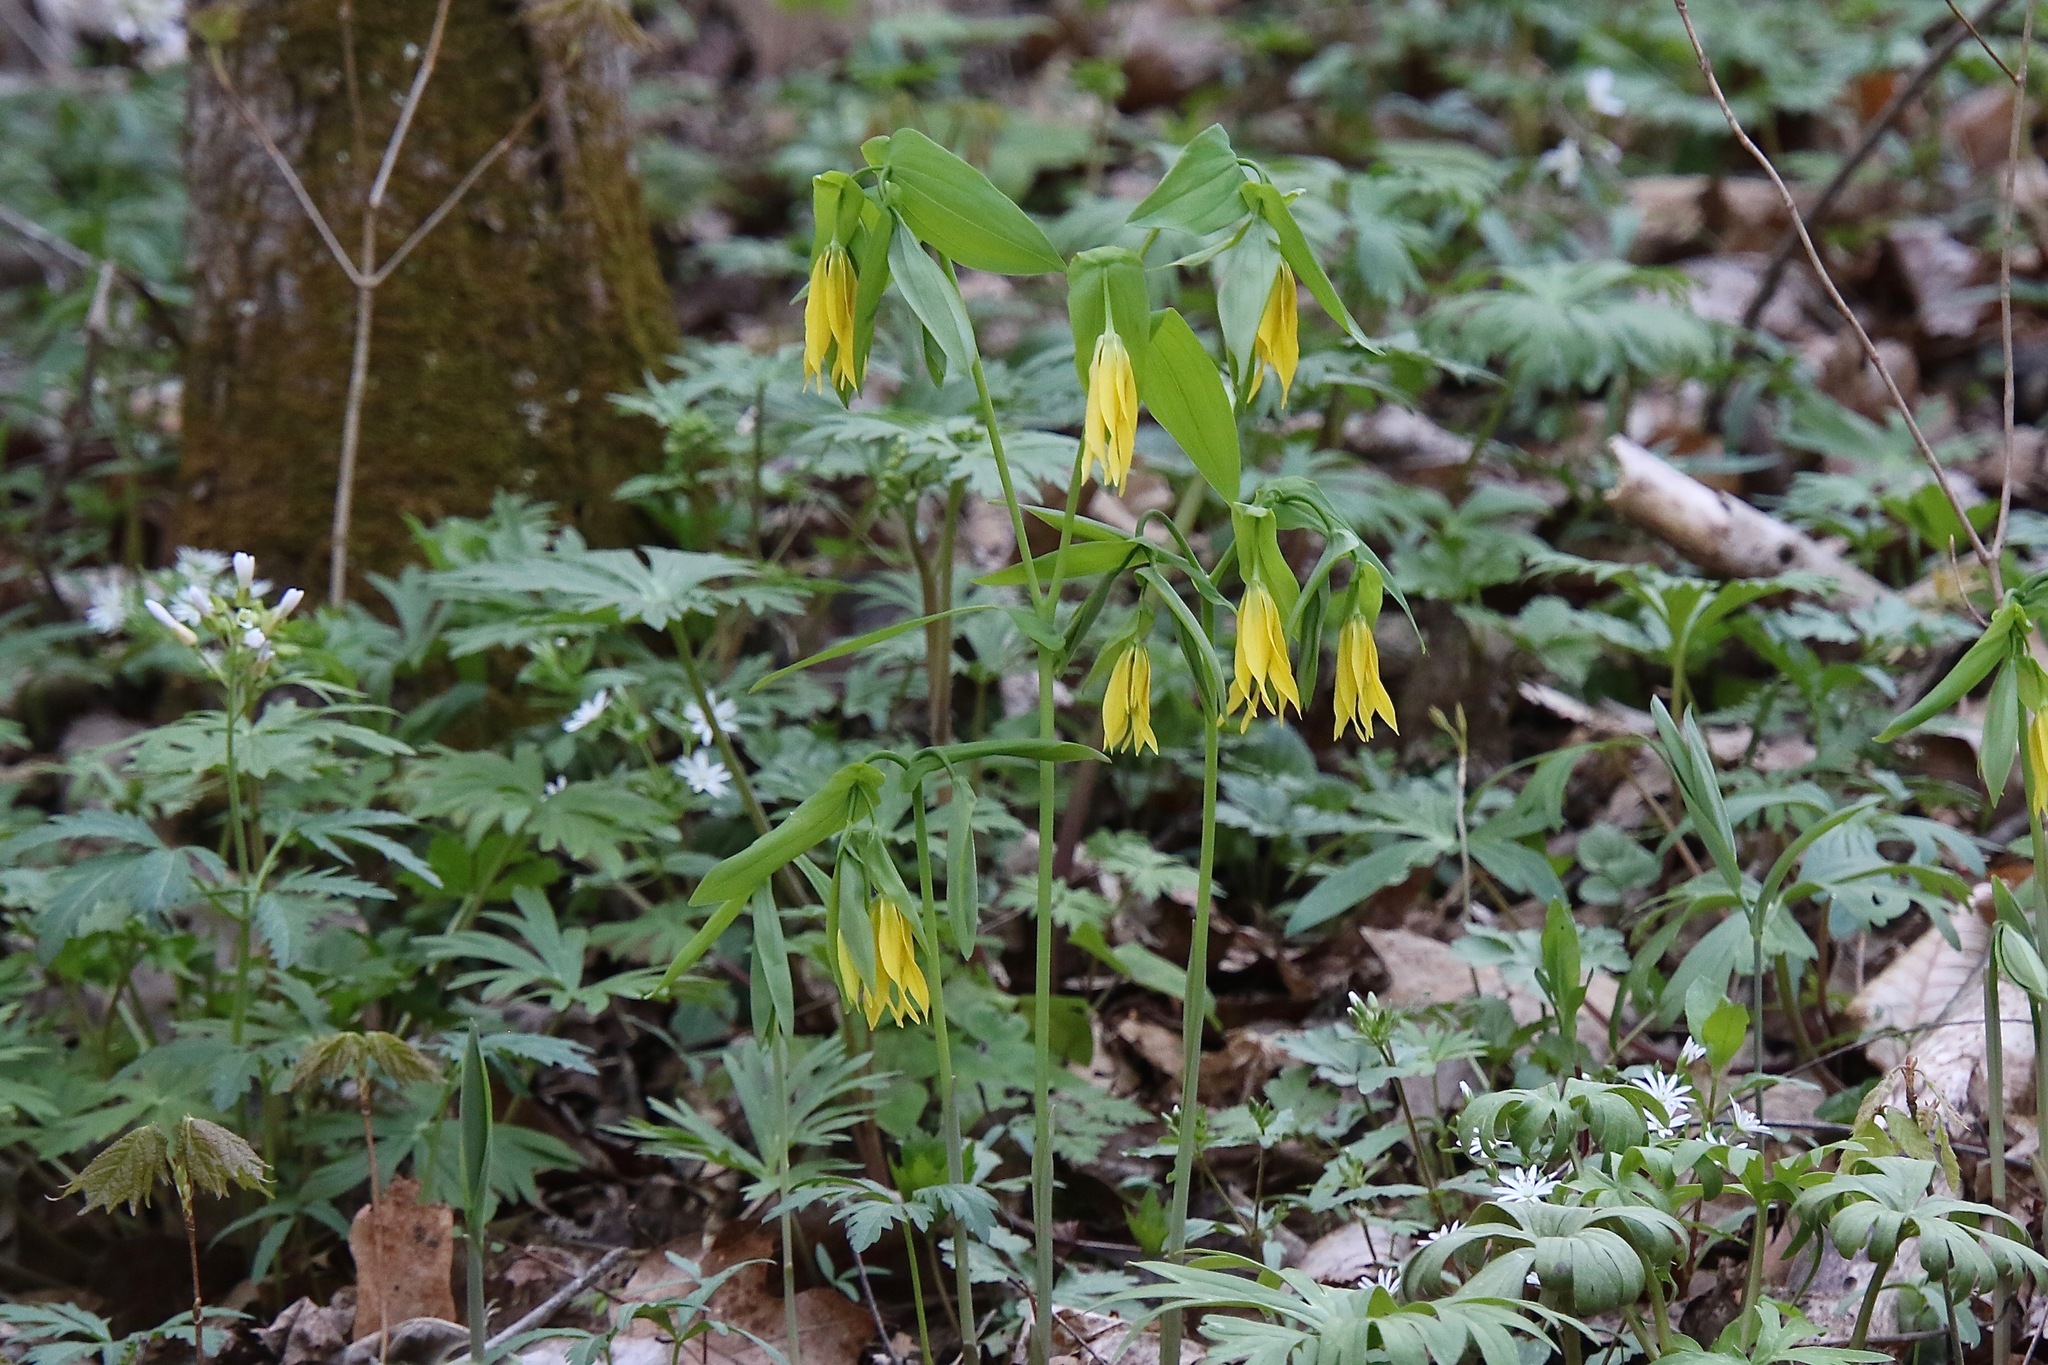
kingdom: Plantae
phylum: Tracheophyta
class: Liliopsida
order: Liliales
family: Colchicaceae
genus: Uvularia
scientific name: Uvularia grandiflora
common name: Bellwort
